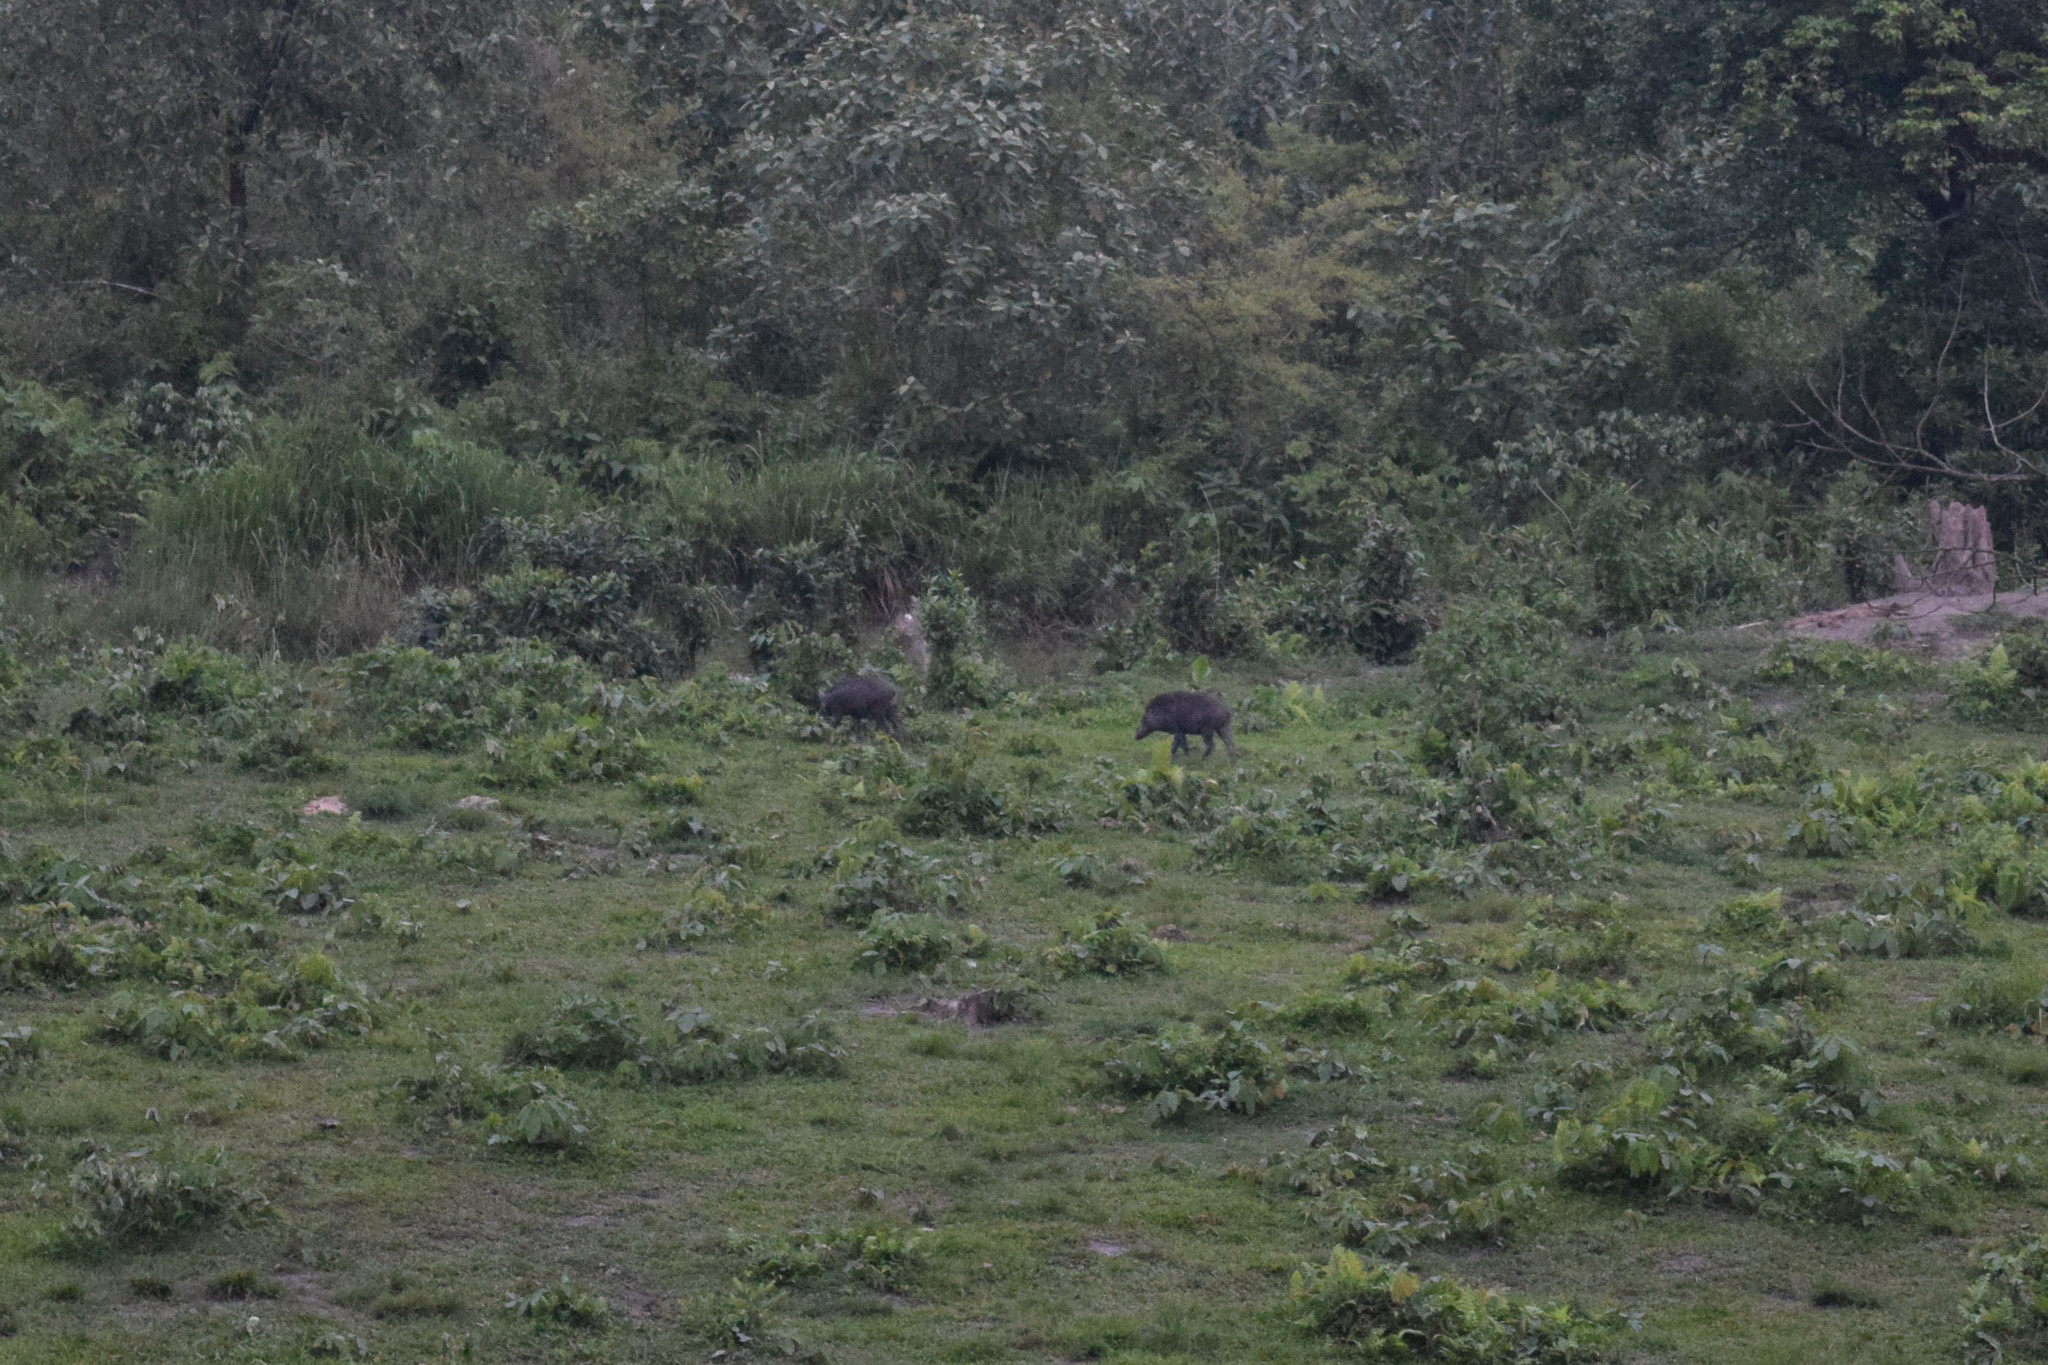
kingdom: Animalia
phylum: Chordata
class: Mammalia
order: Artiodactyla
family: Suidae
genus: Sus
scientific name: Sus scrofa
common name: Wild boar
